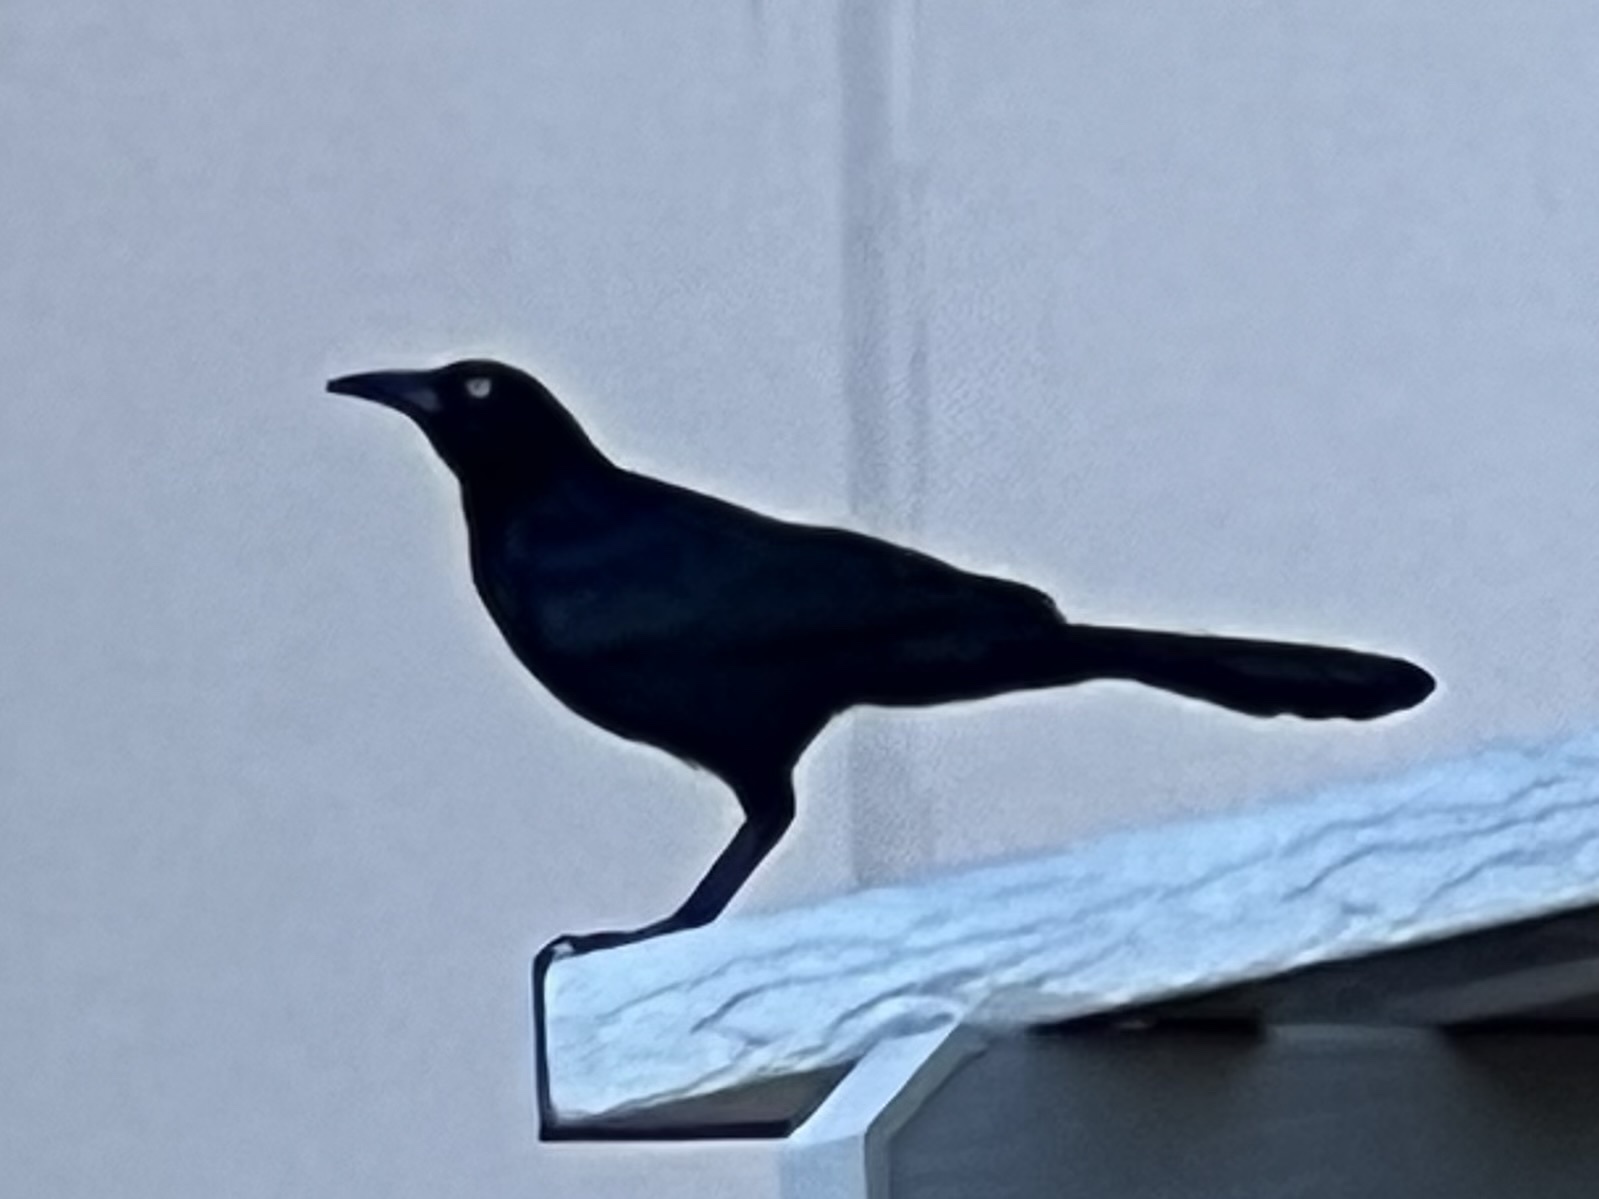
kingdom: Animalia
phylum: Chordata
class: Aves
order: Passeriformes
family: Icteridae
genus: Quiscalus
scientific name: Quiscalus mexicanus
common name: Great-tailed grackle
